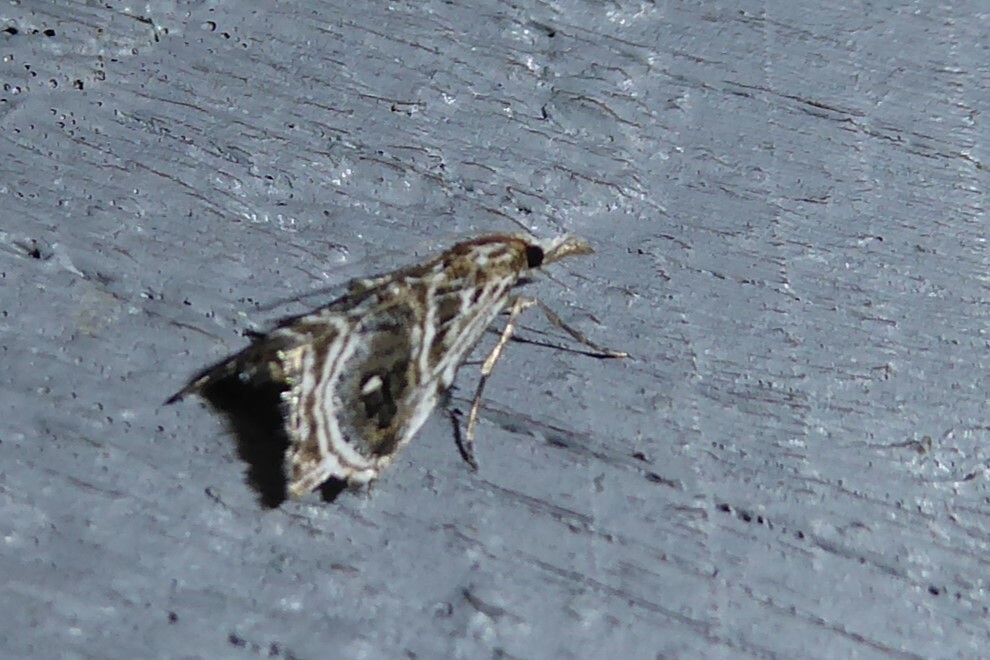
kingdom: Animalia
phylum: Arthropoda
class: Insecta
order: Lepidoptera
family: Crambidae
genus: Gadira
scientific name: Gadira acerella
